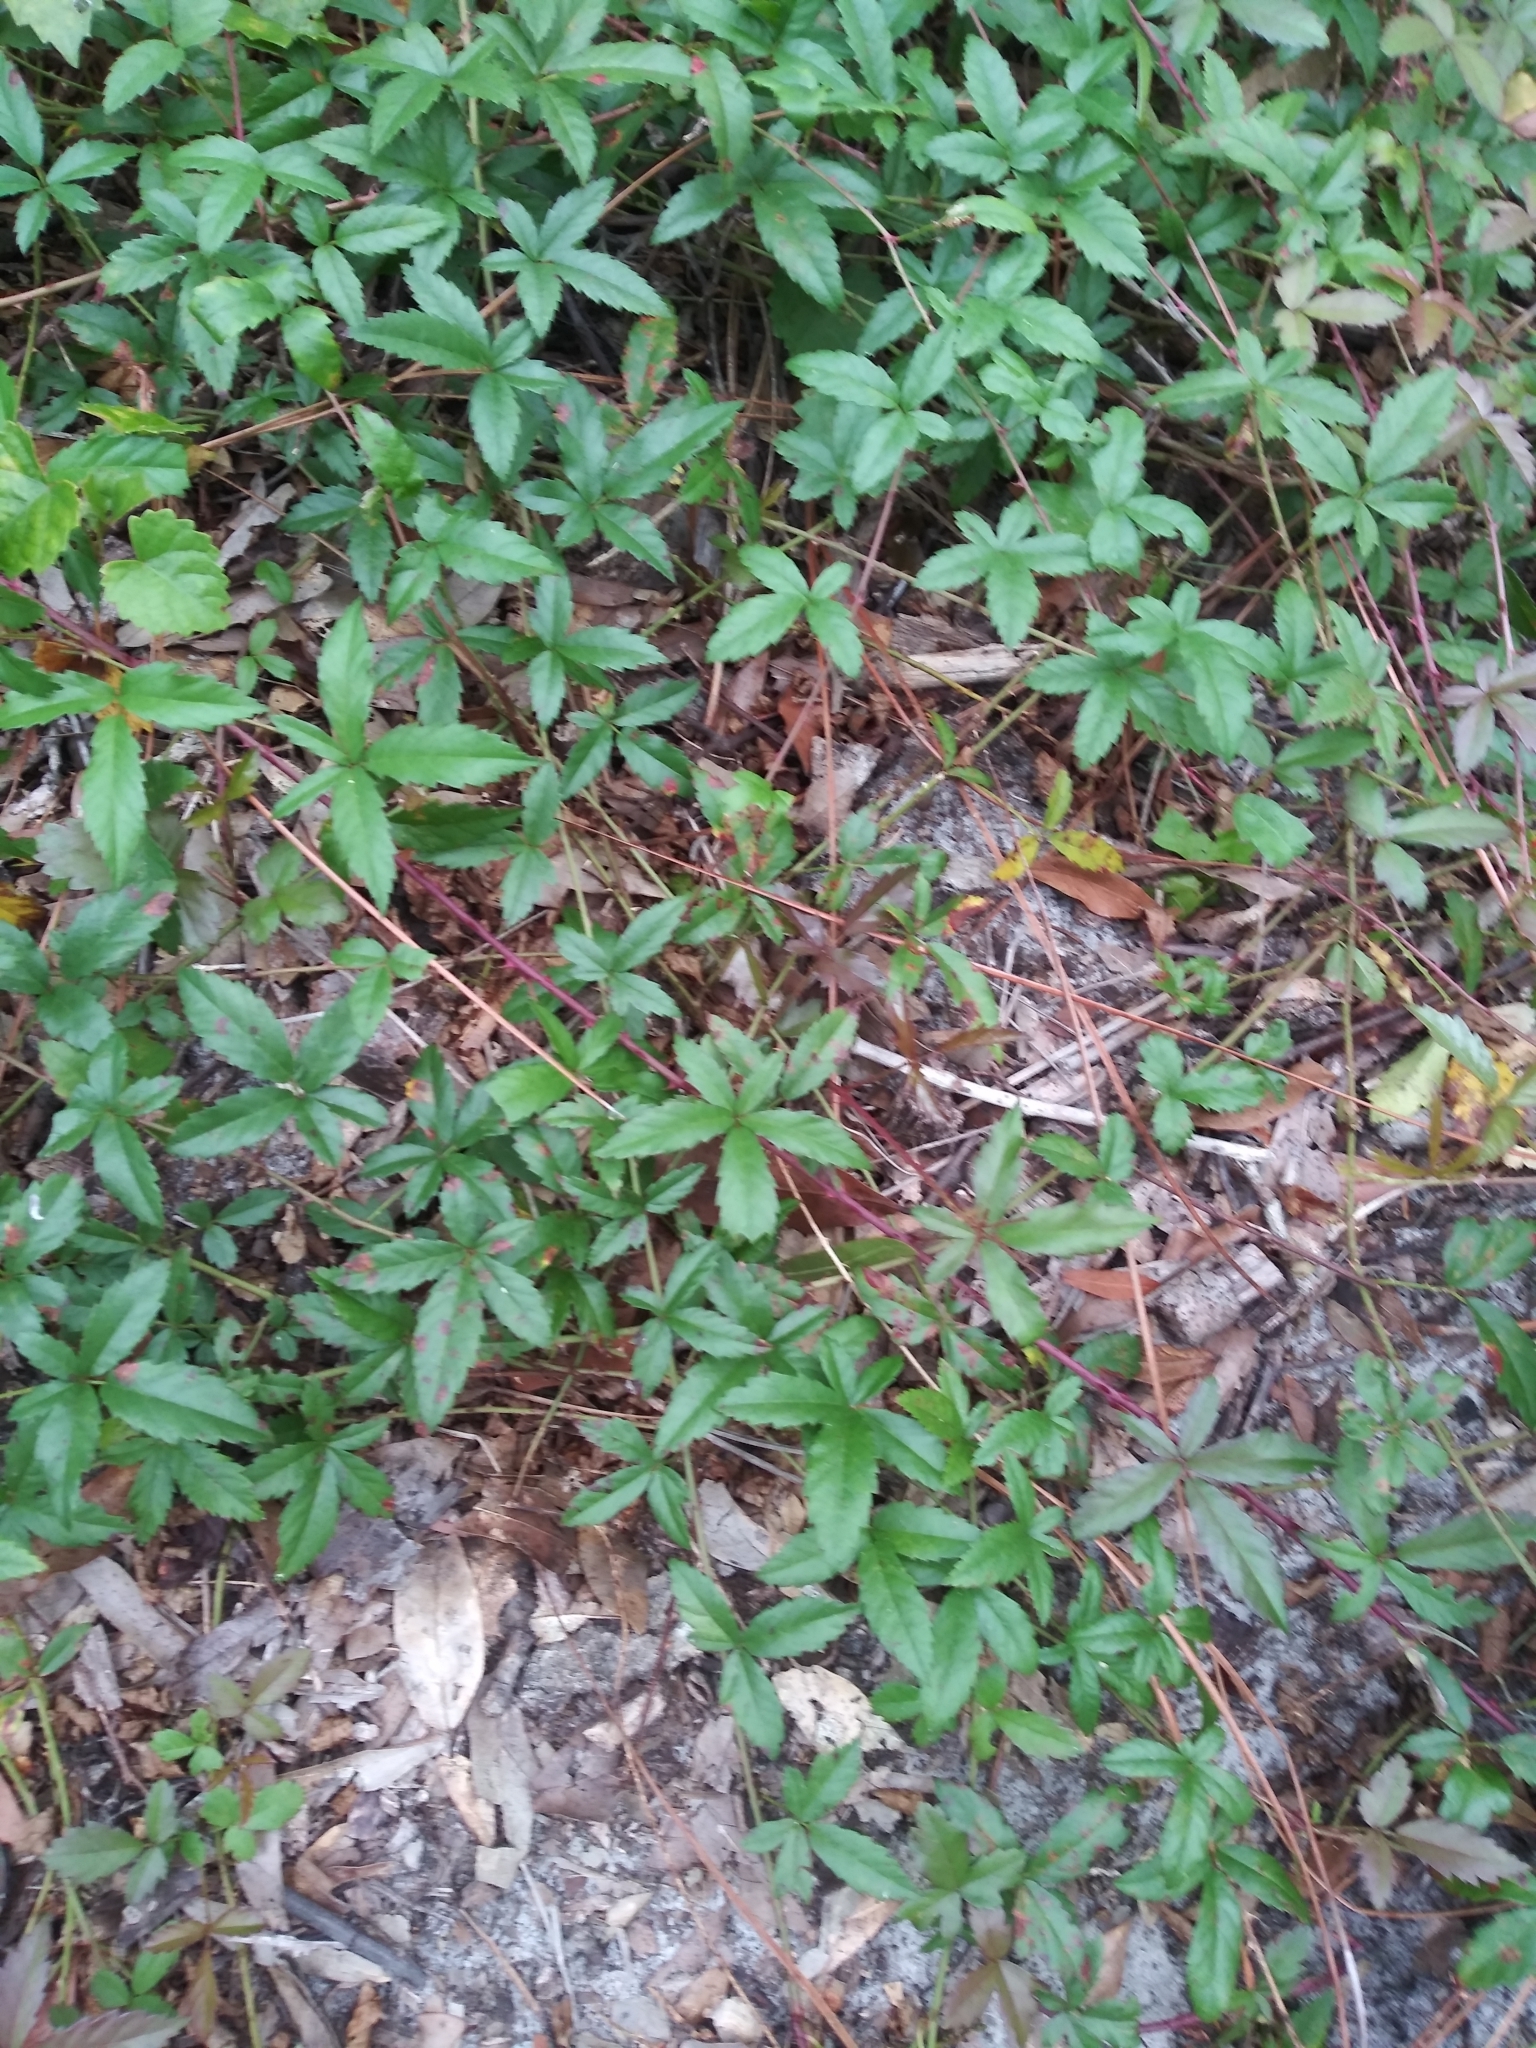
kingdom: Plantae
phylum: Tracheophyta
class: Magnoliopsida
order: Rosales
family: Rosaceae
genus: Rubus
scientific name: Rubus trivialis
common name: Southern dewberry
